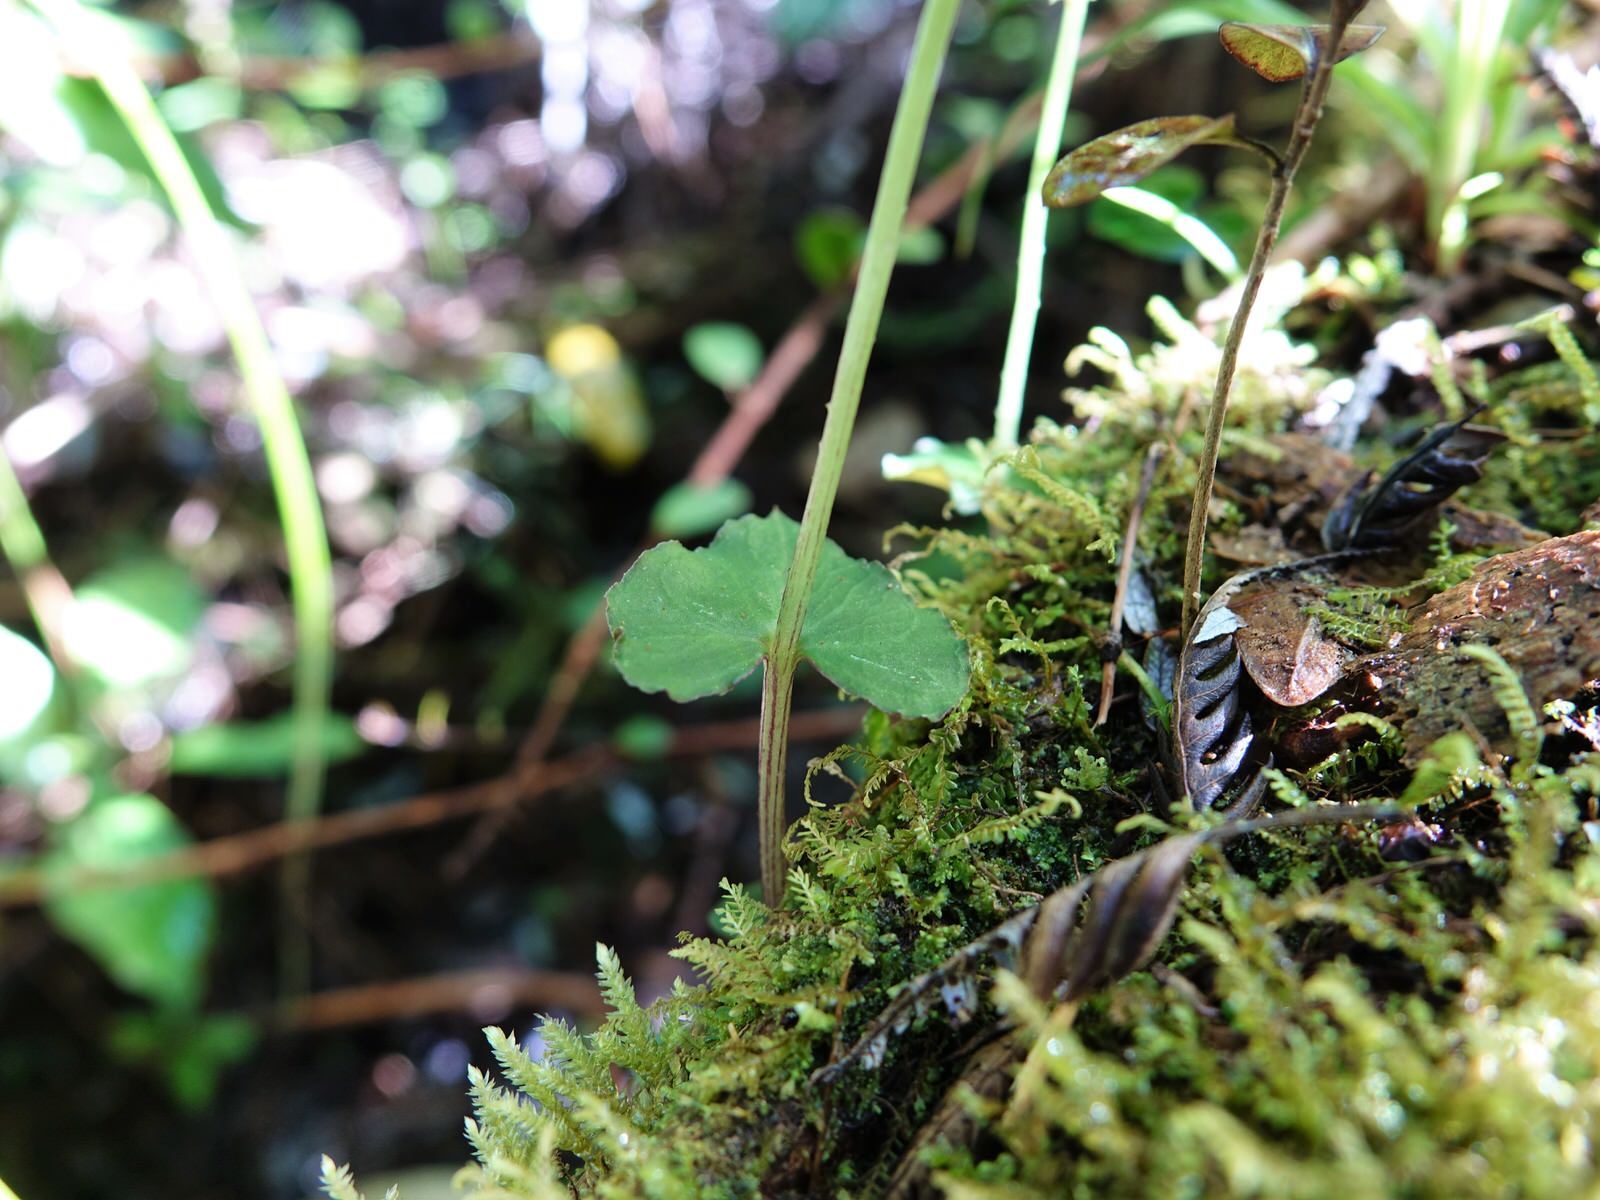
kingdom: Plantae
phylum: Tracheophyta
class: Liliopsida
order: Asparagales
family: Orchidaceae
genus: Acianthus
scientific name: Acianthus sinclairii
